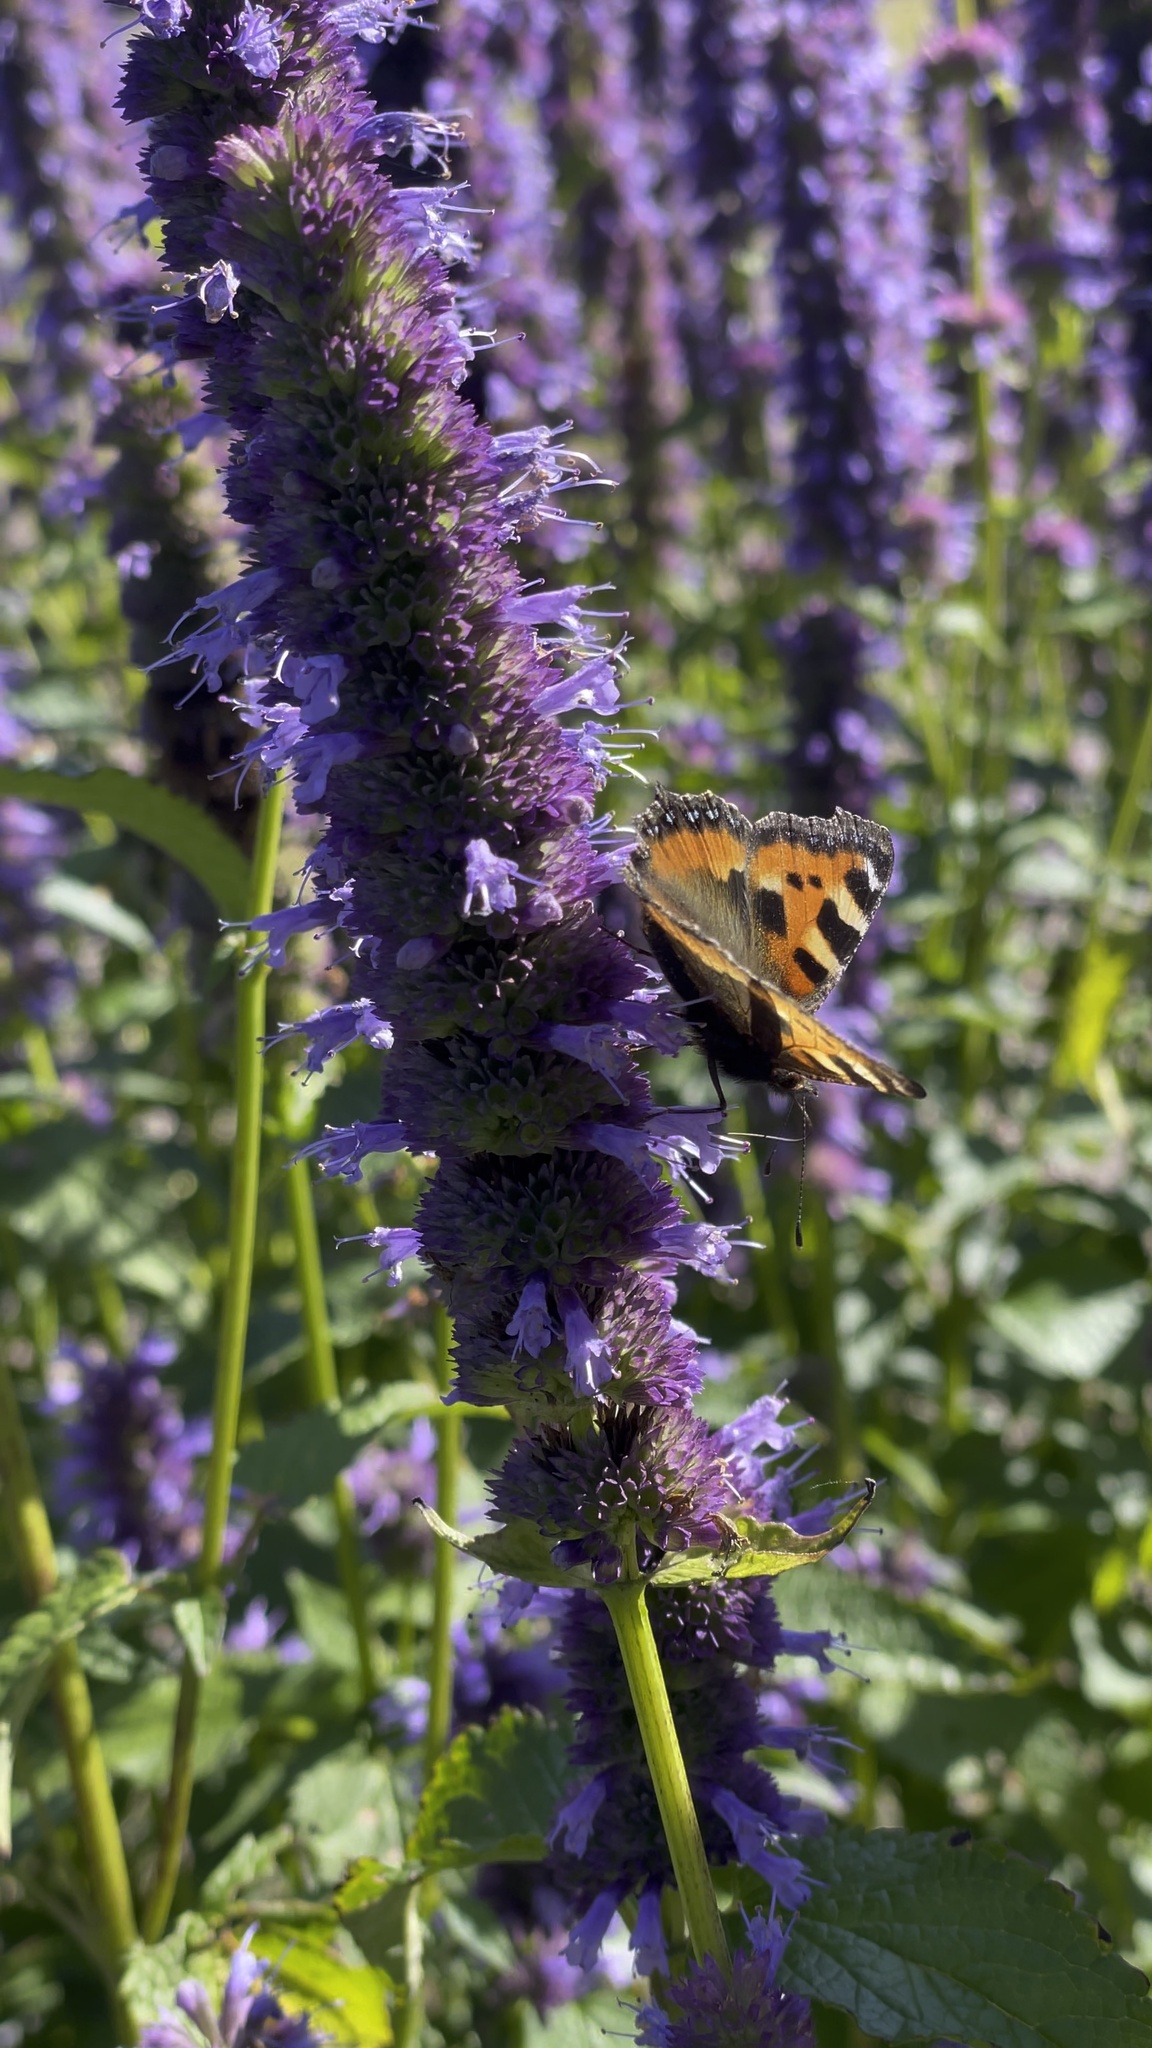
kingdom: Animalia
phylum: Arthropoda
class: Insecta
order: Lepidoptera
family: Nymphalidae
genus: Aglais
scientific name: Aglais urticae
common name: Small tortoiseshell
